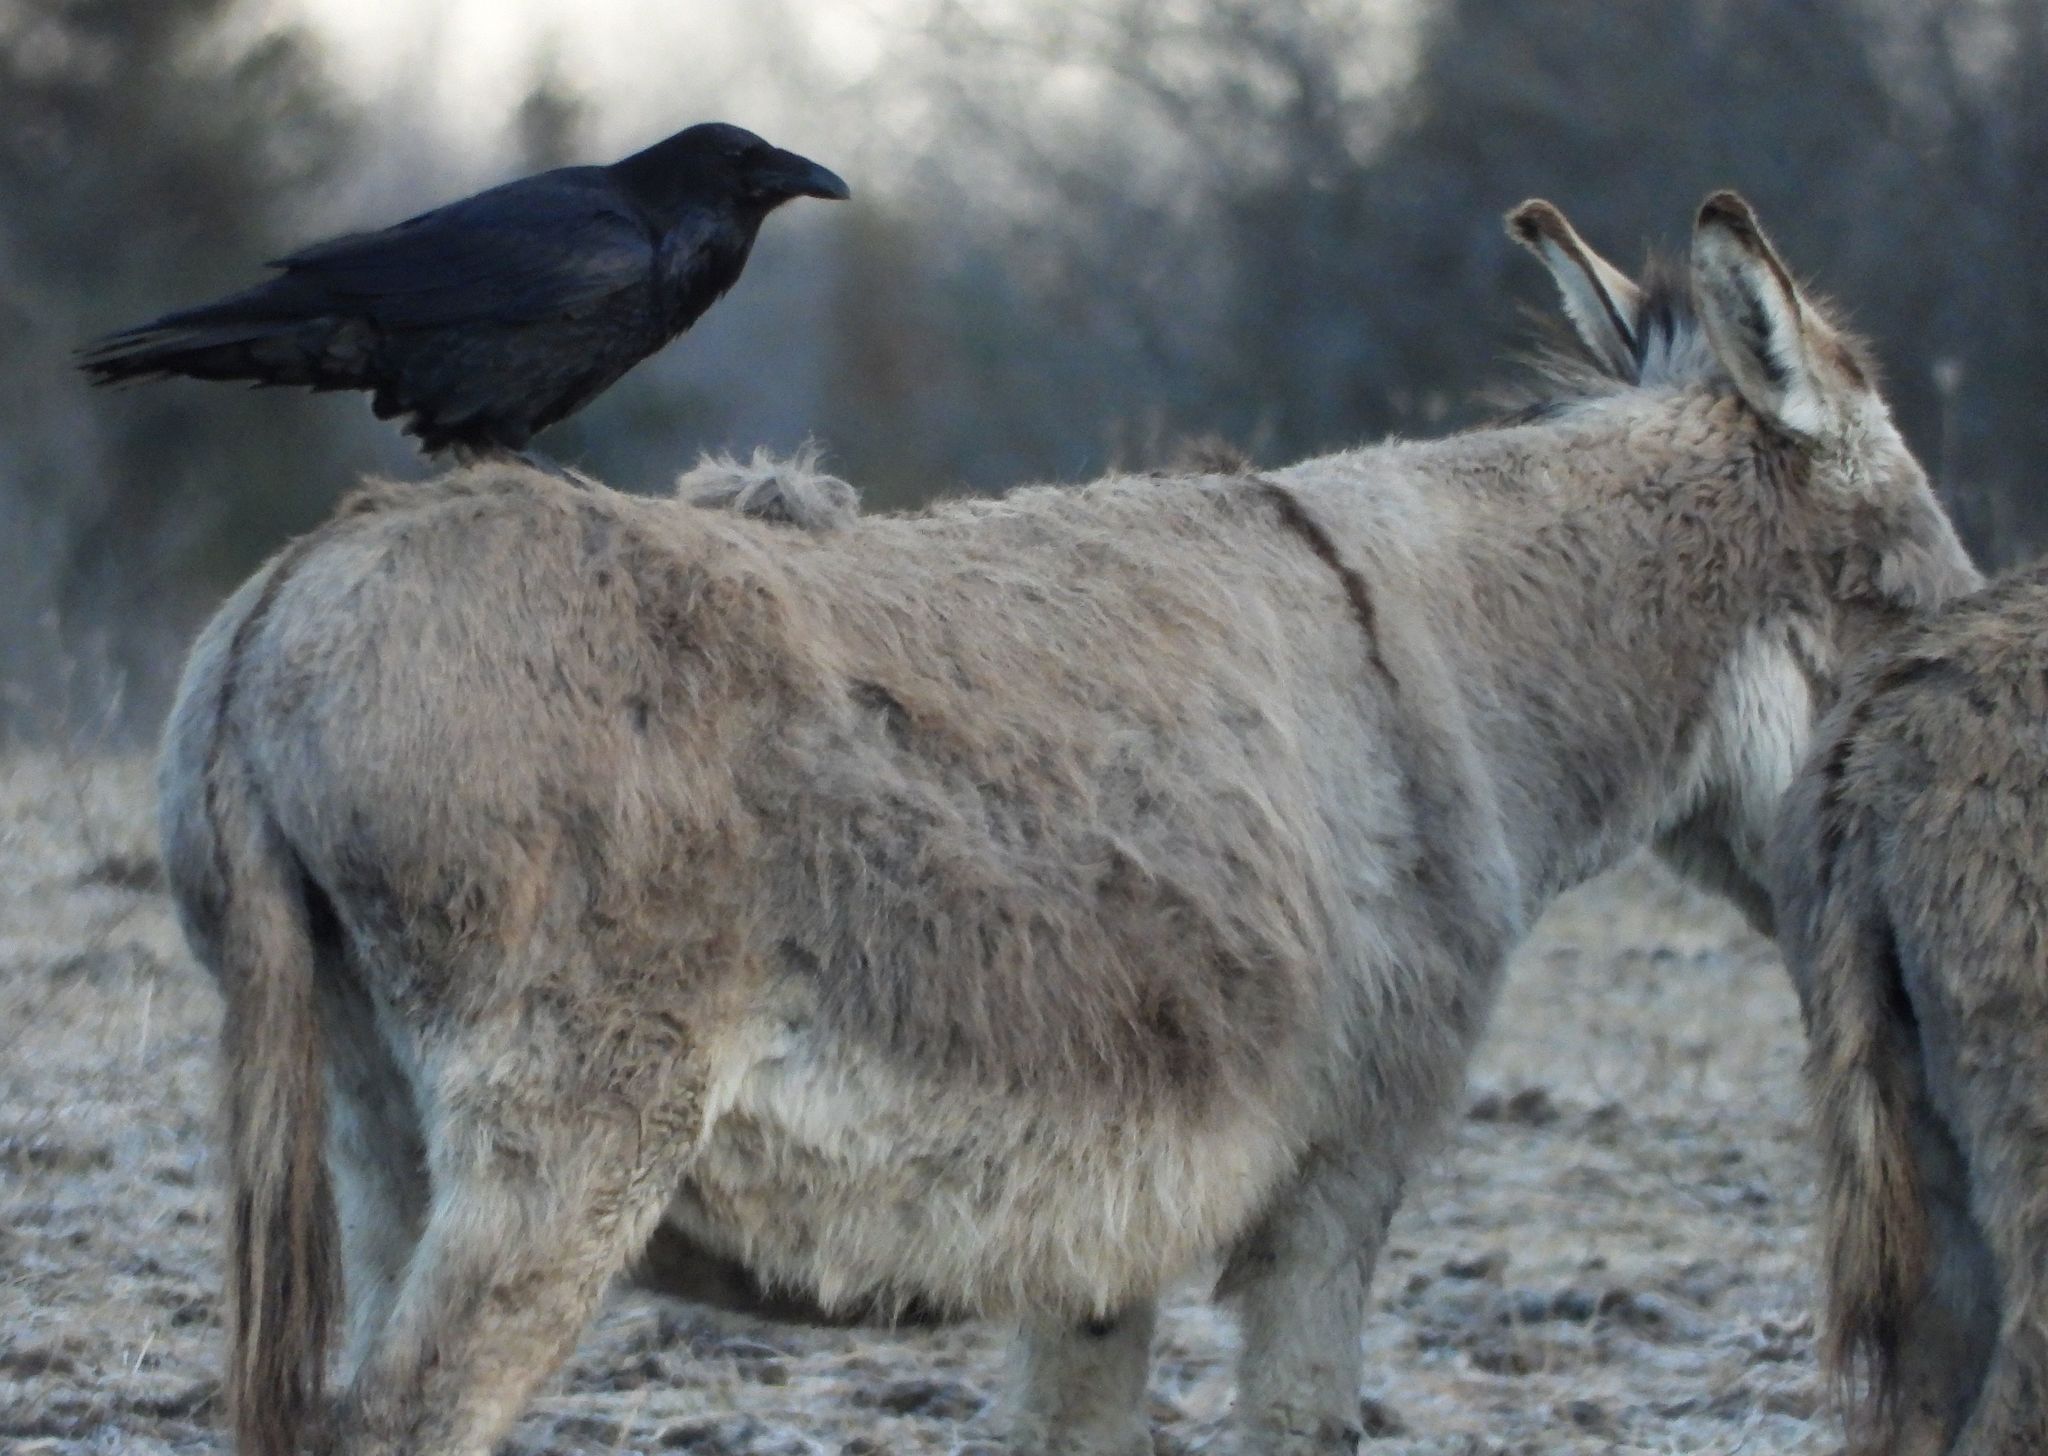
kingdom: Animalia
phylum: Chordata
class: Aves
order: Passeriformes
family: Corvidae
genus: Corvus
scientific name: Corvus corax
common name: Common raven
